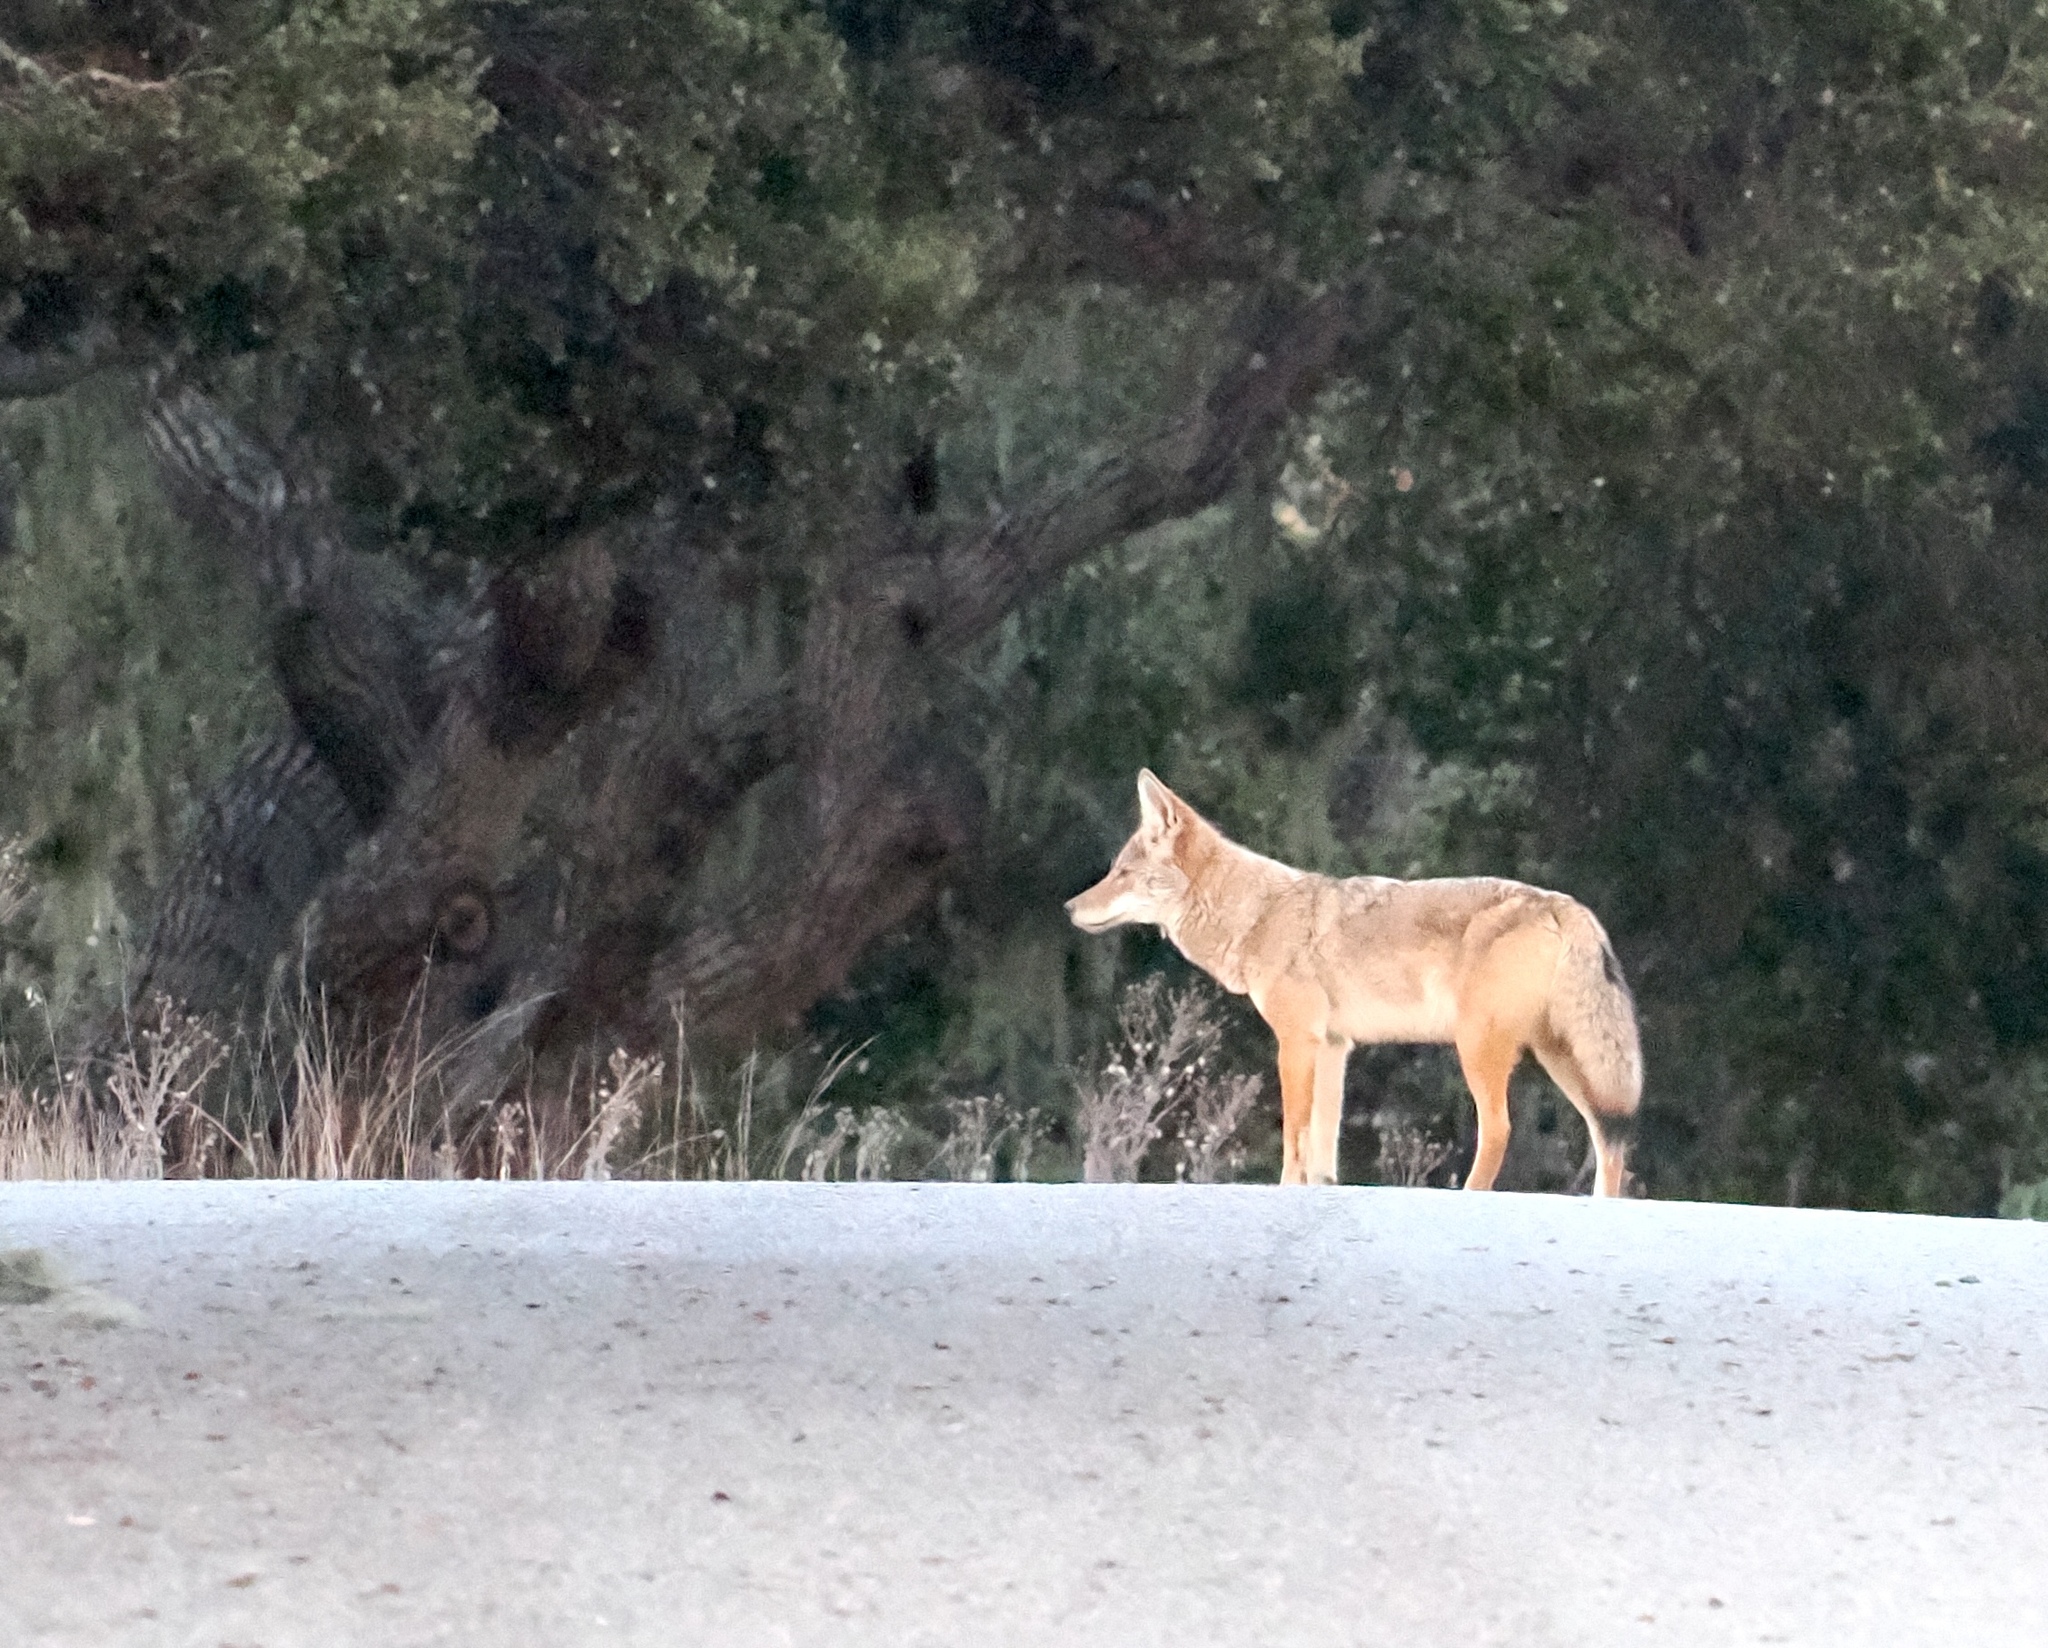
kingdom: Animalia
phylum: Chordata
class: Mammalia
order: Carnivora
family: Canidae
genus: Canis
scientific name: Canis latrans
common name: Coyote
